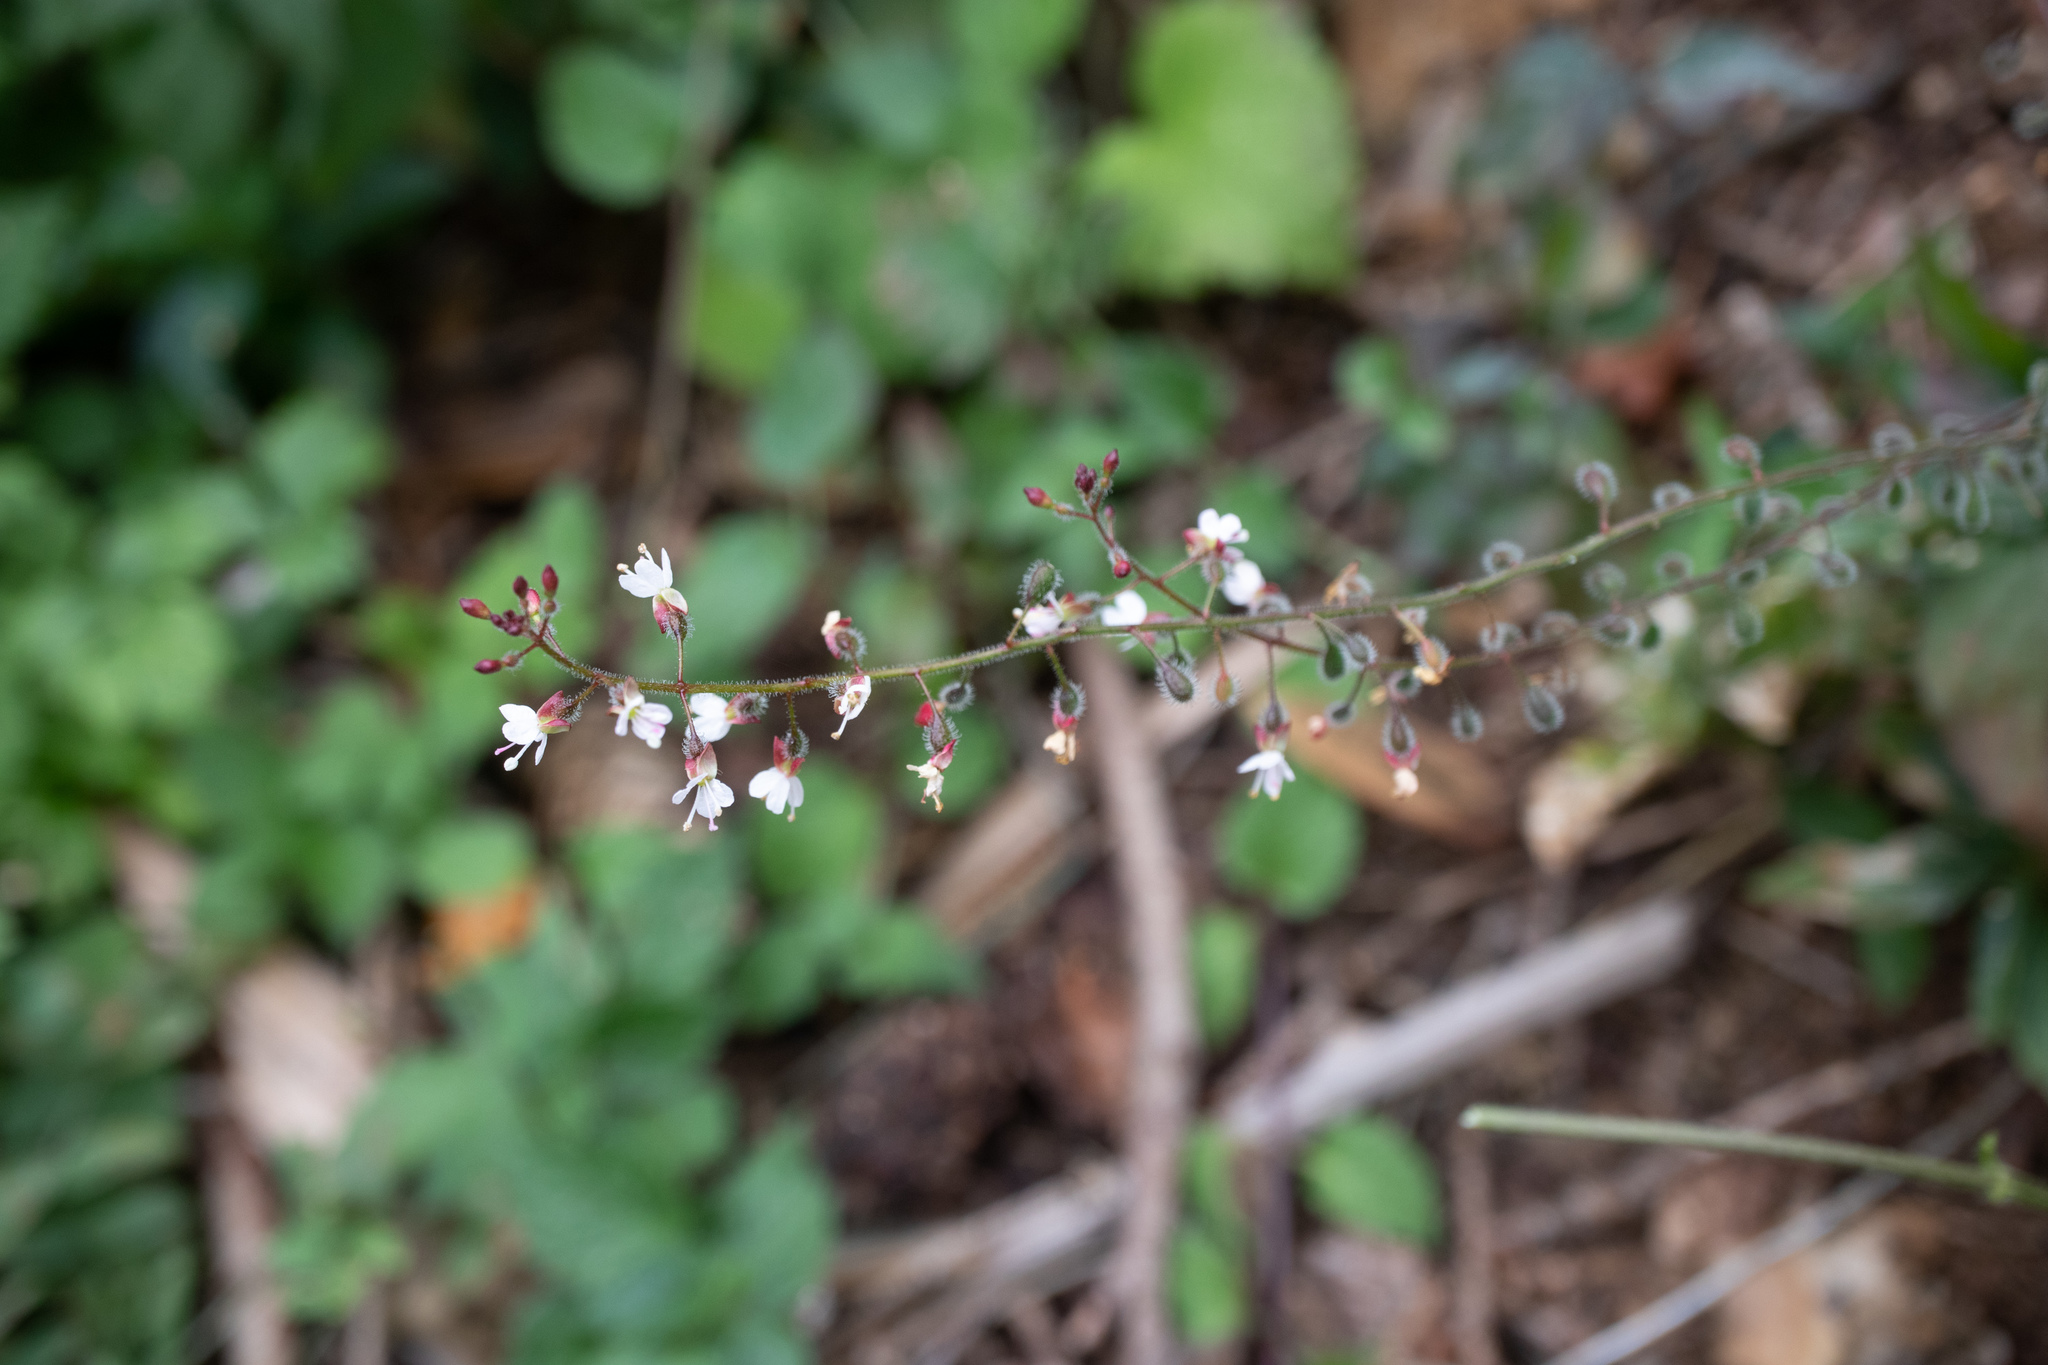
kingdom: Plantae
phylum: Tracheophyta
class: Magnoliopsida
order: Myrtales
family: Onagraceae
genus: Circaea
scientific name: Circaea lutetiana
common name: Enchanter's-nightshade
